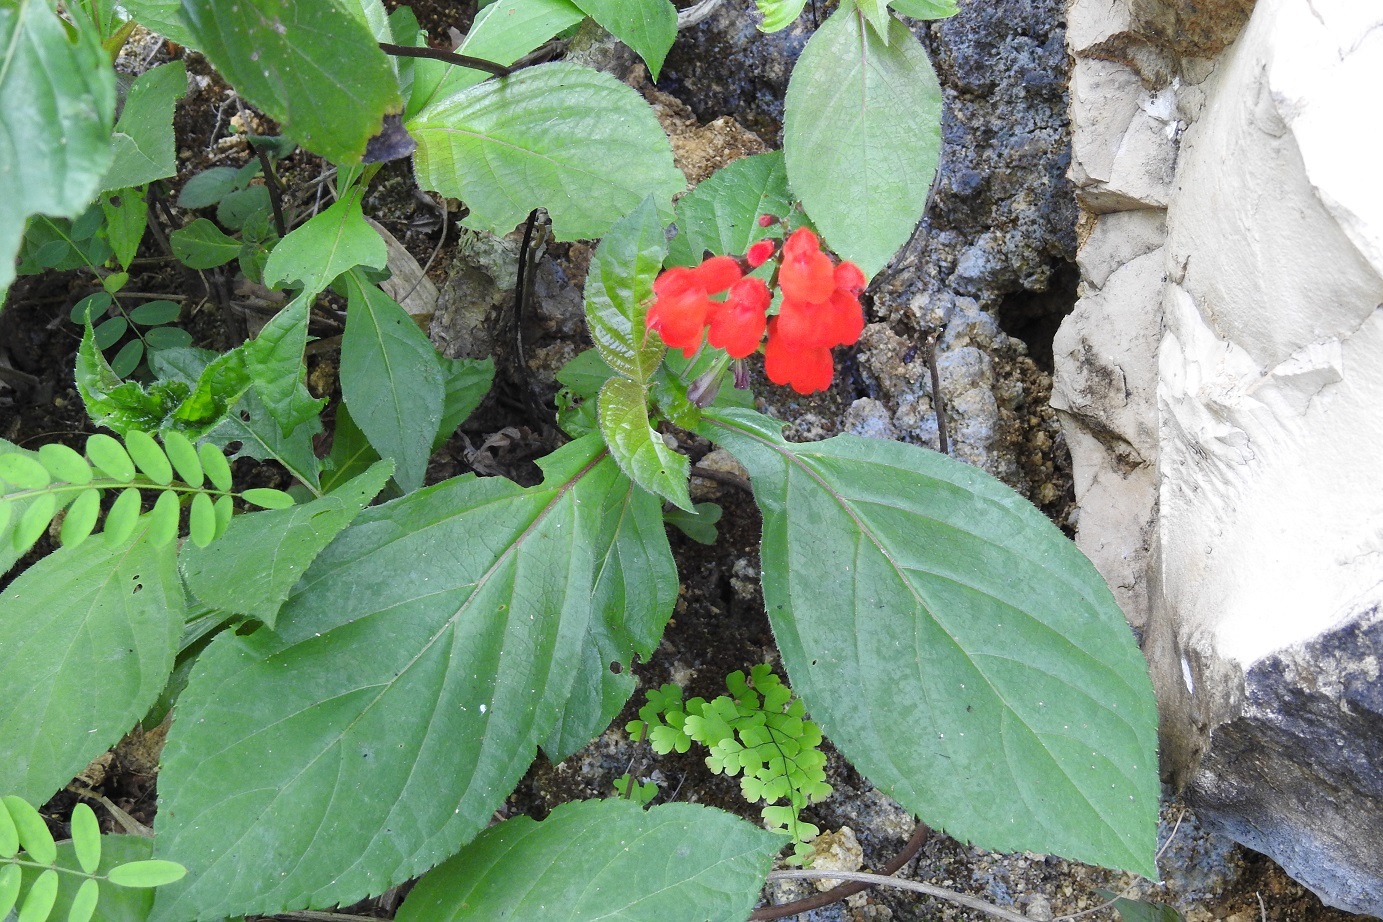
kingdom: Plantae
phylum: Tracheophyta
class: Magnoliopsida
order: Lamiales
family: Lamiaceae
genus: Salvia
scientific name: Salvia miniata
